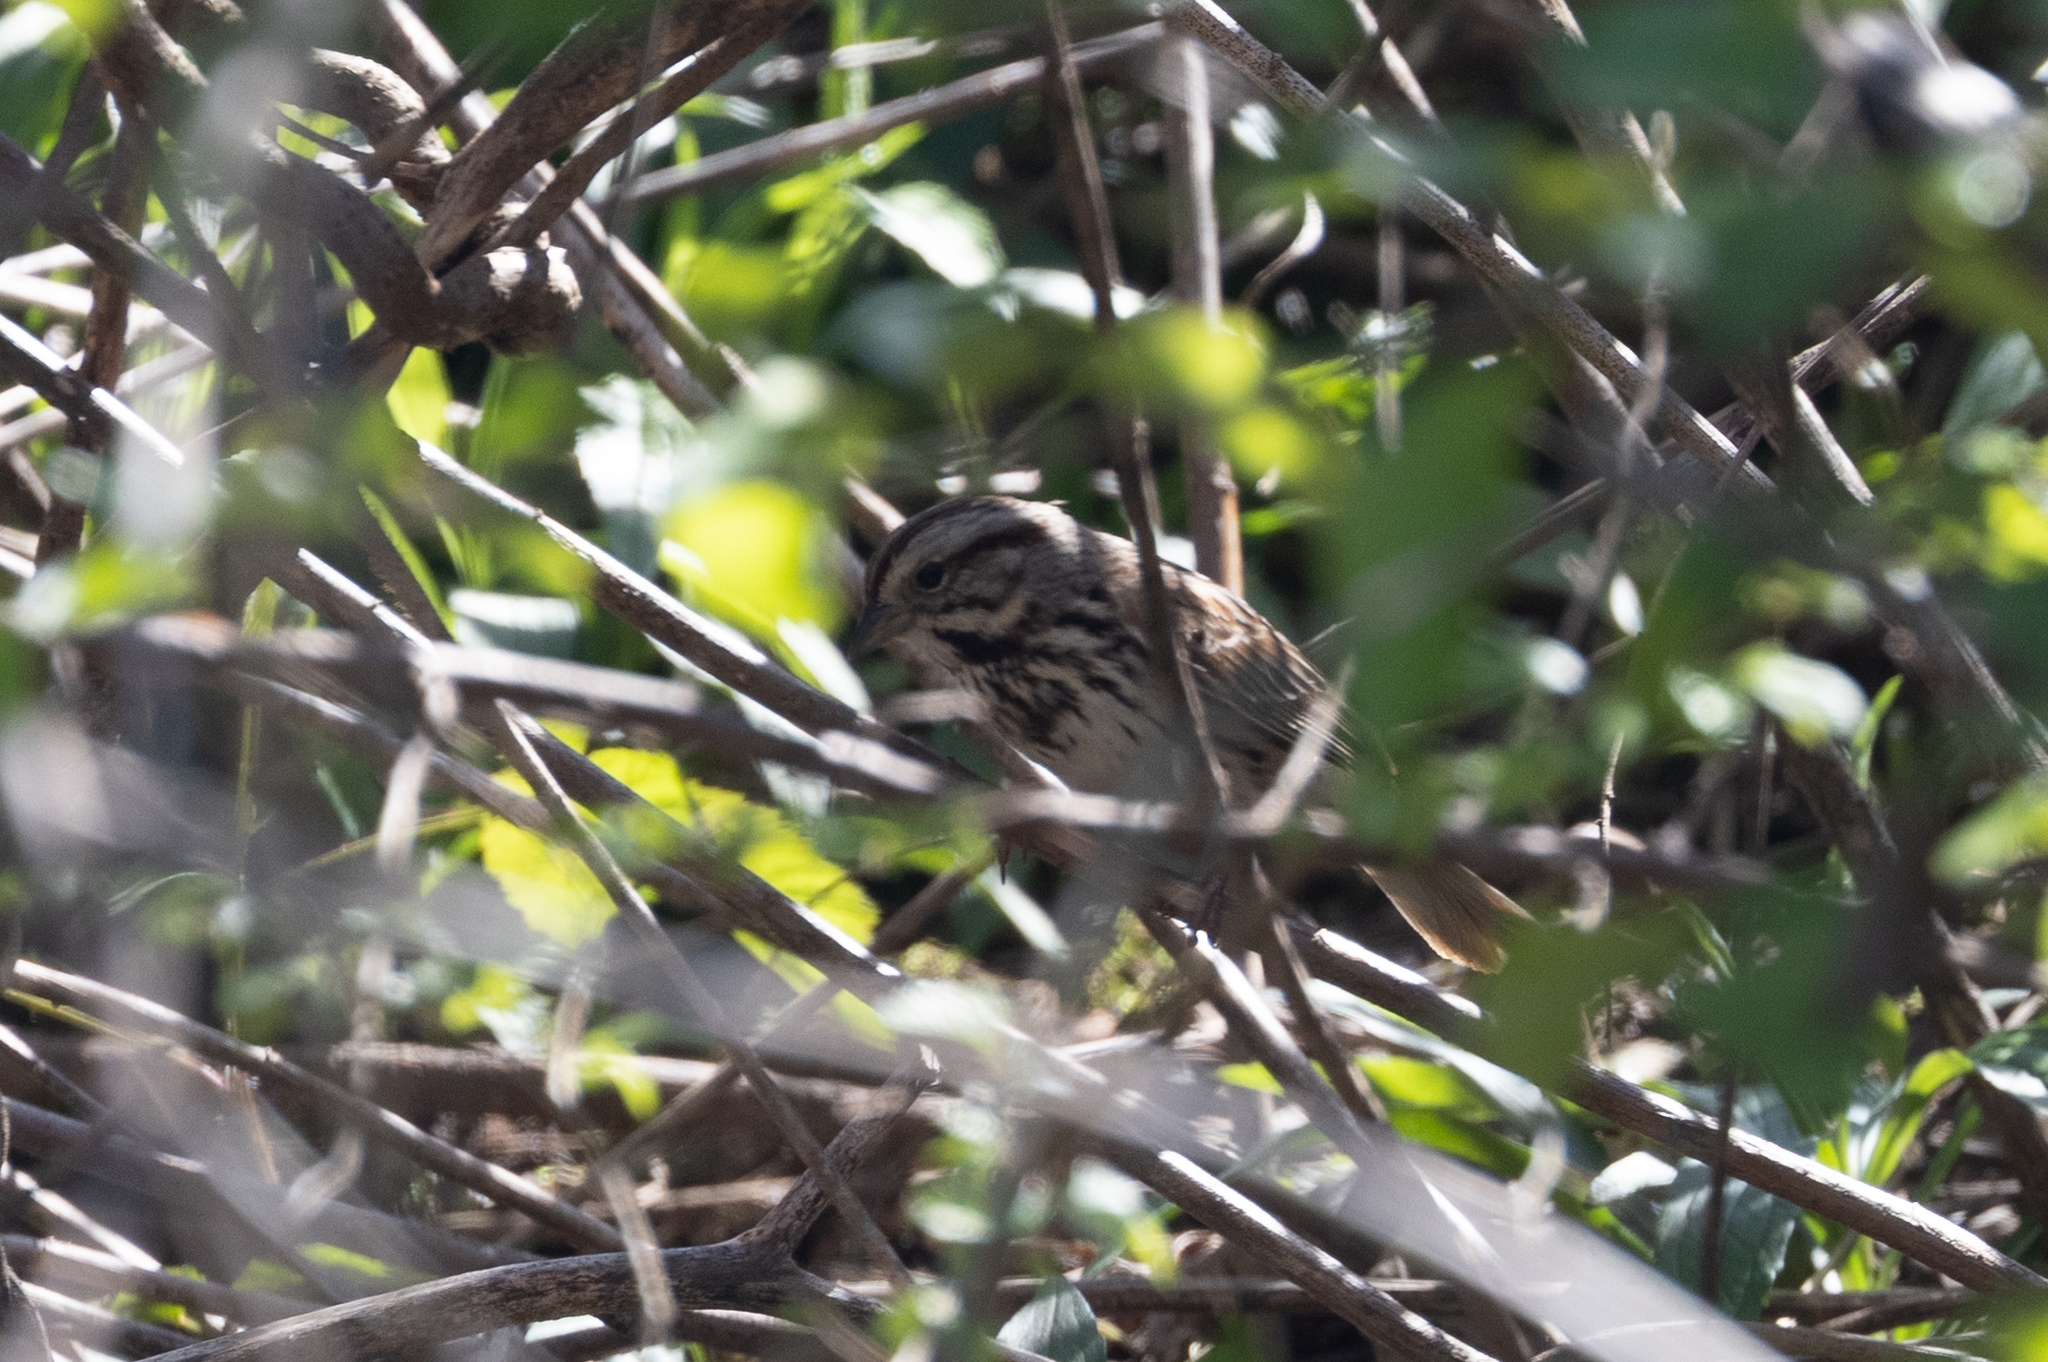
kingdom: Animalia
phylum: Chordata
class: Aves
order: Passeriformes
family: Passerellidae
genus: Melospiza
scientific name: Melospiza melodia
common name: Song sparrow
